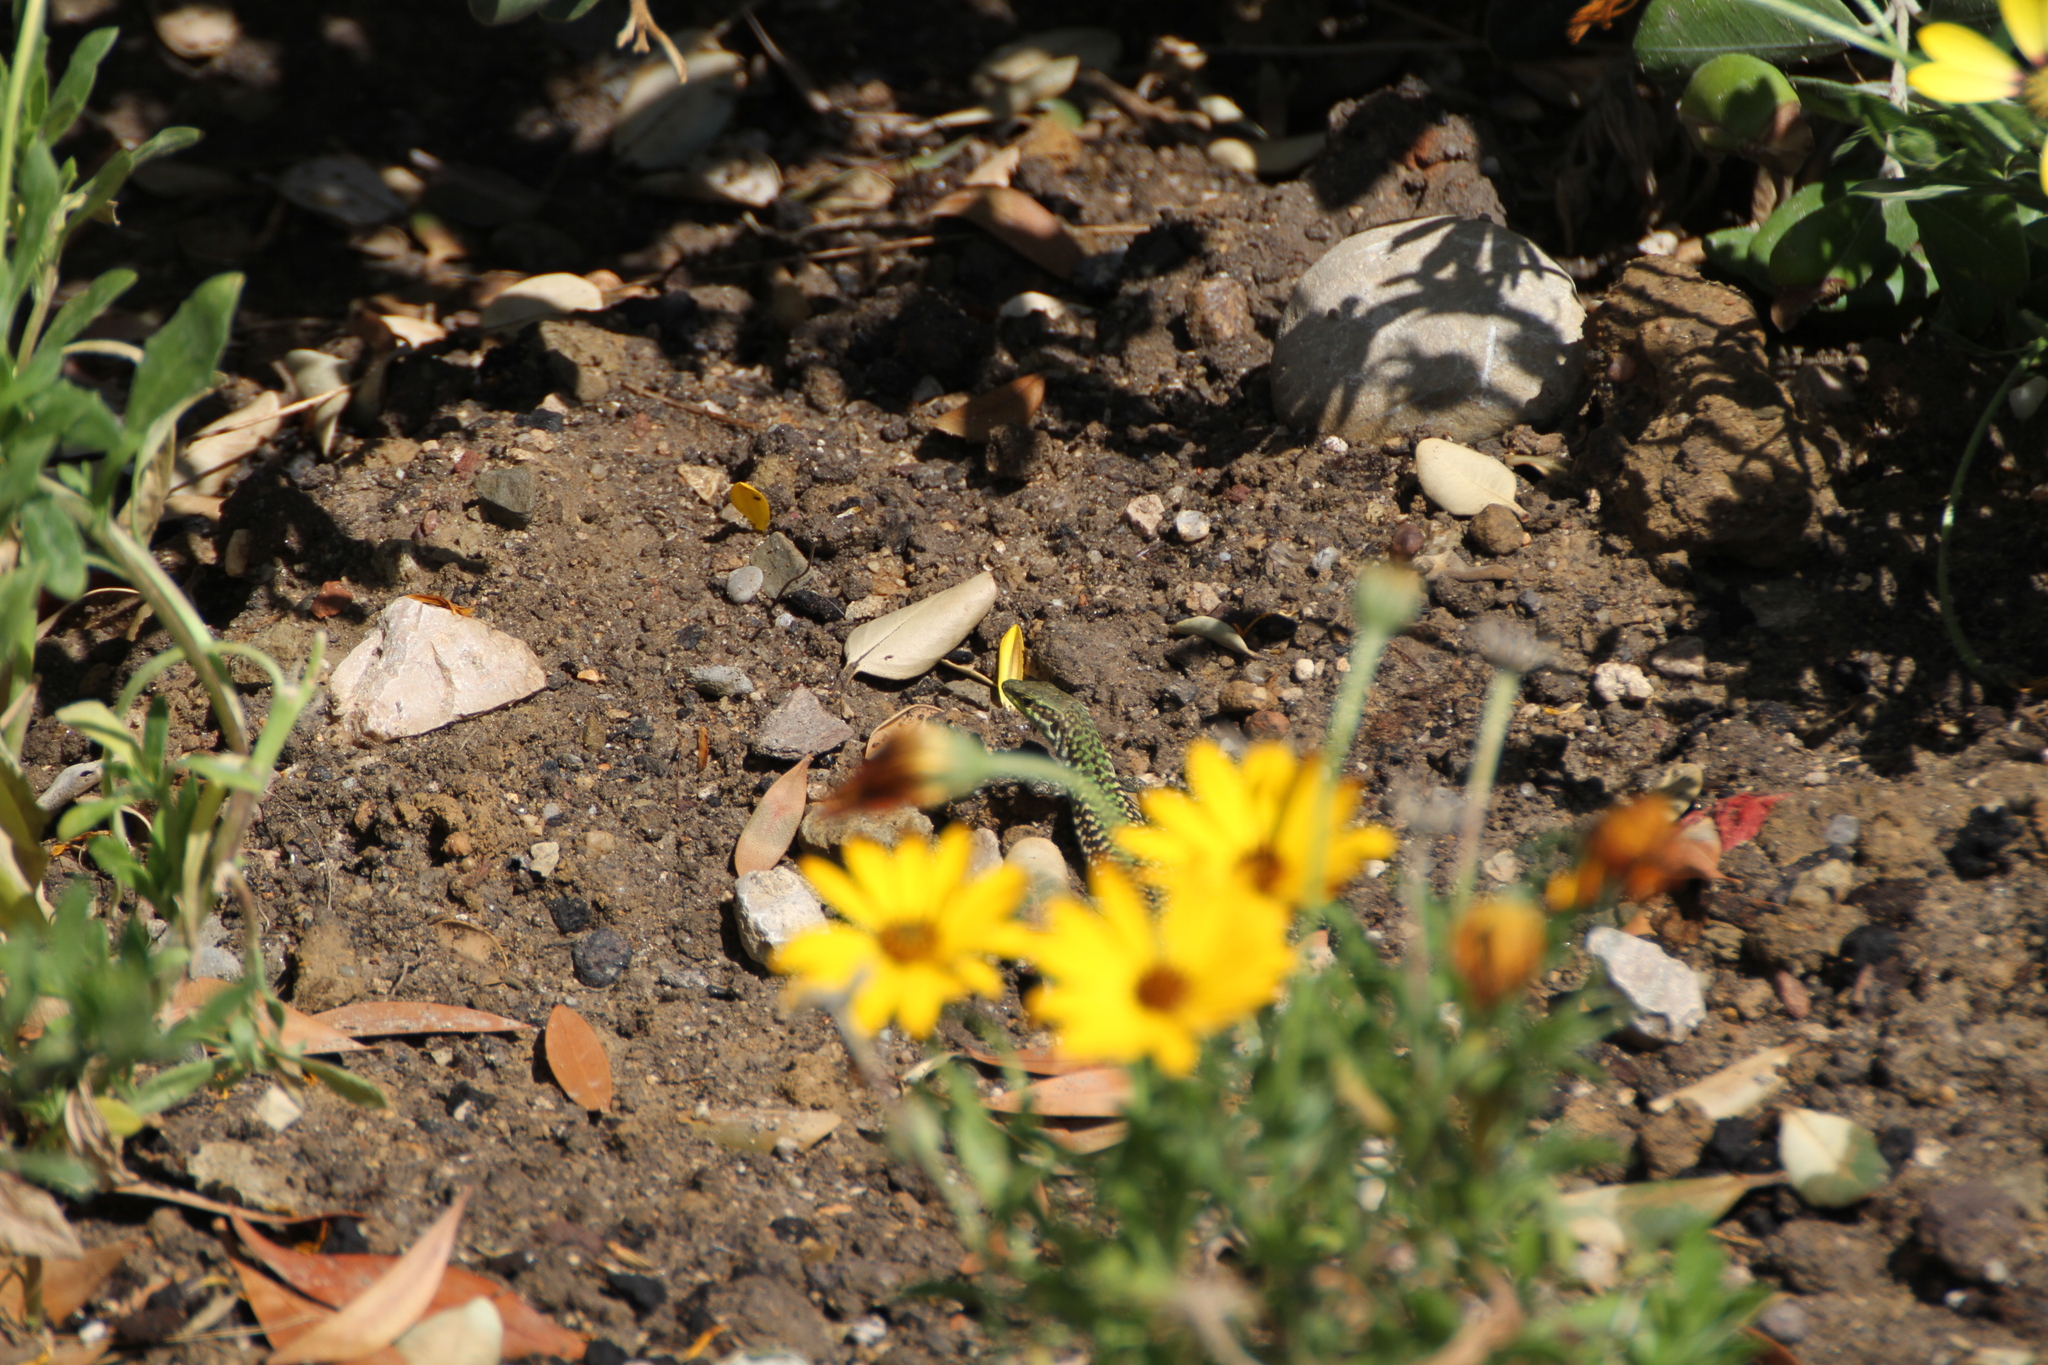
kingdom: Animalia
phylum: Chordata
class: Squamata
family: Lacertidae
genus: Podarcis
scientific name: Podarcis siculus
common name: Italian wall lizard
